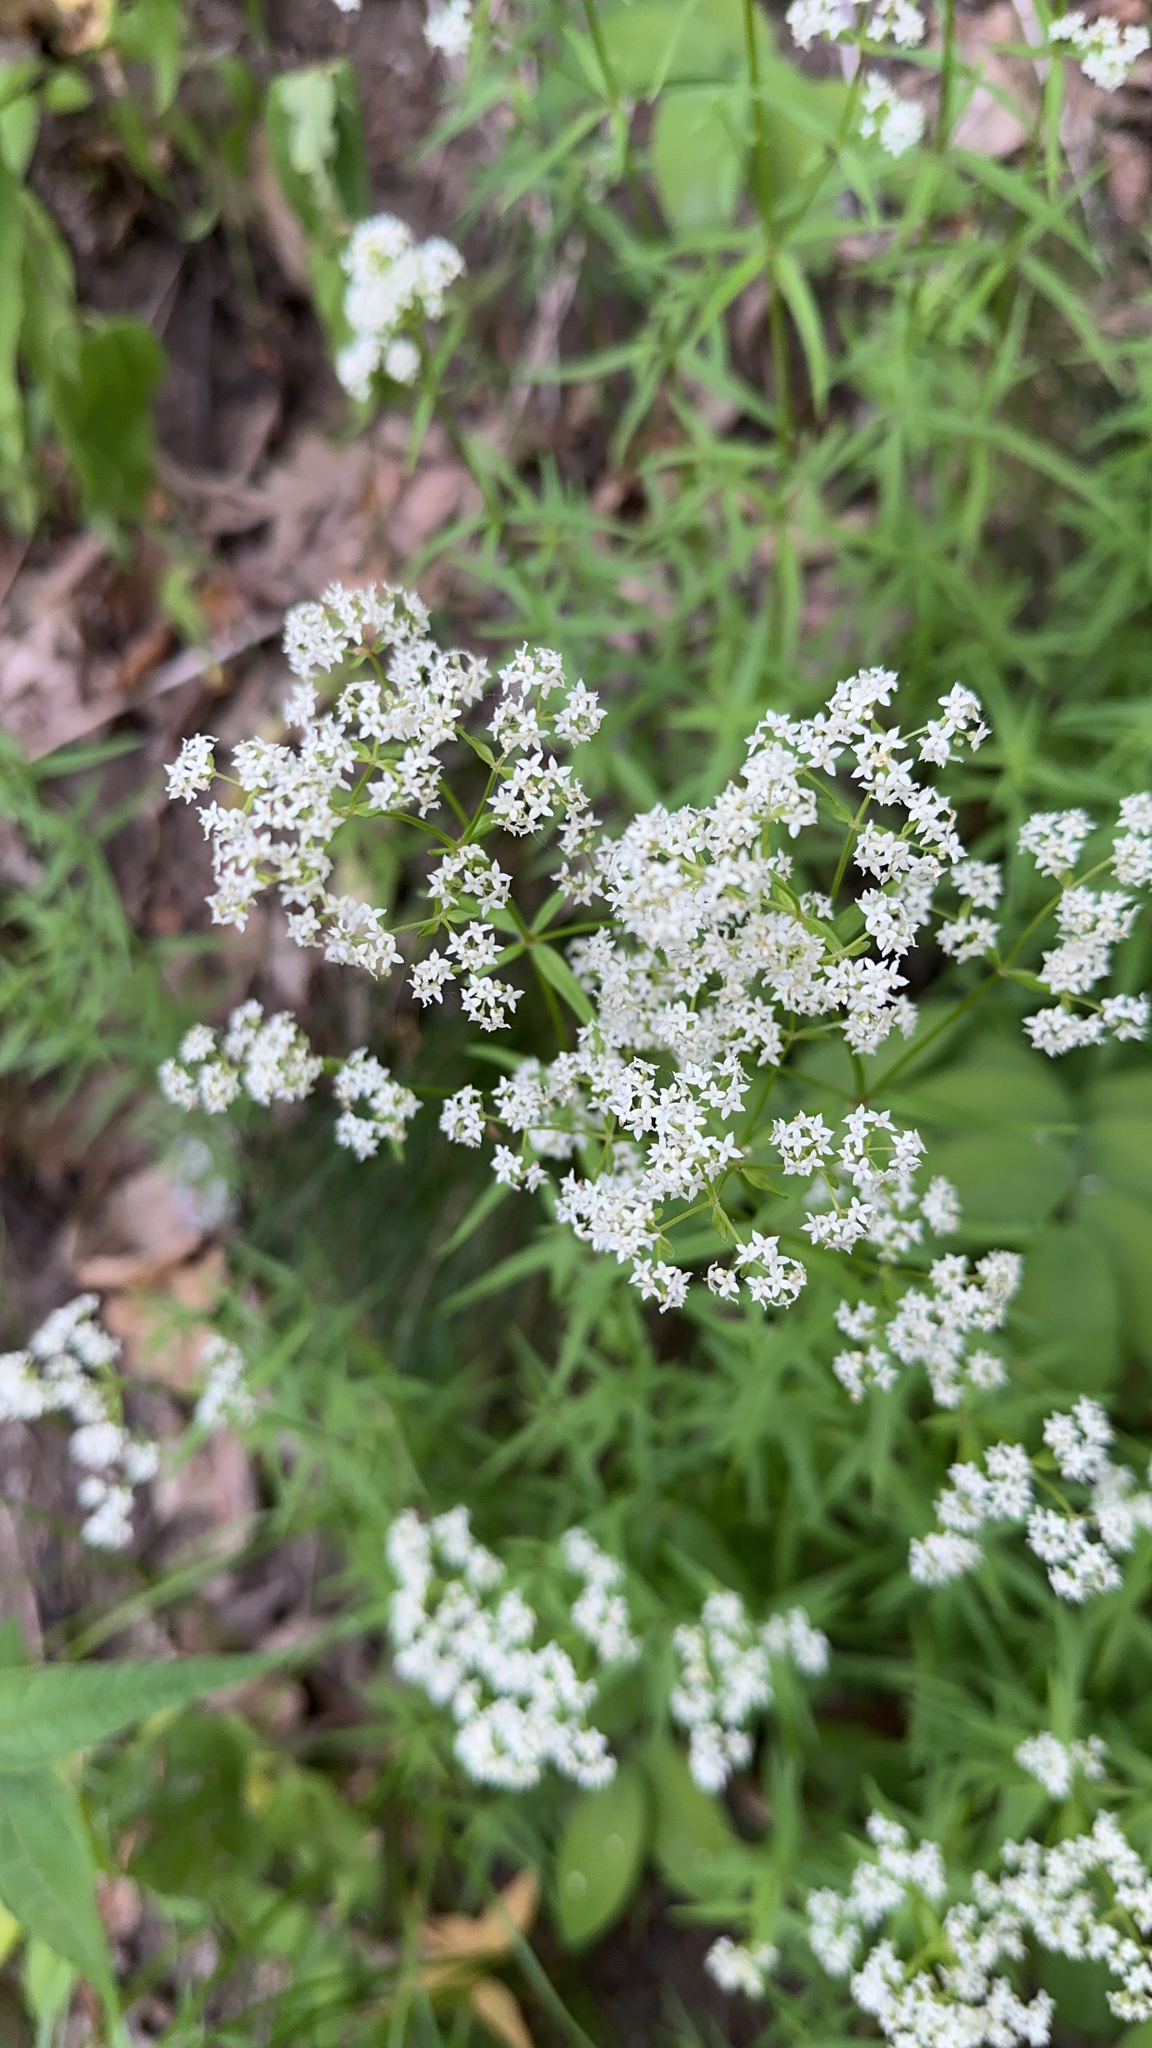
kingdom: Plantae
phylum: Tracheophyta
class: Magnoliopsida
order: Gentianales
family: Rubiaceae
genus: Galium
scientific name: Galium boreale
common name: Northern bedstraw
